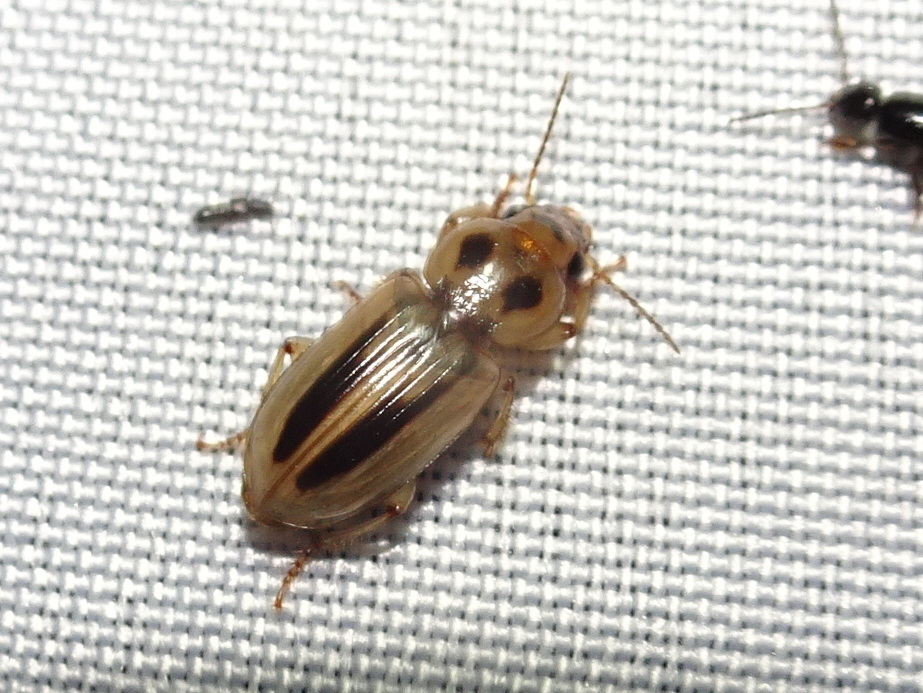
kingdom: Animalia
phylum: Arthropoda
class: Insecta
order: Coleoptera
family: Carabidae
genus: Stenolophus
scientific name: Stenolophus lineola
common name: Lined stenolophus
